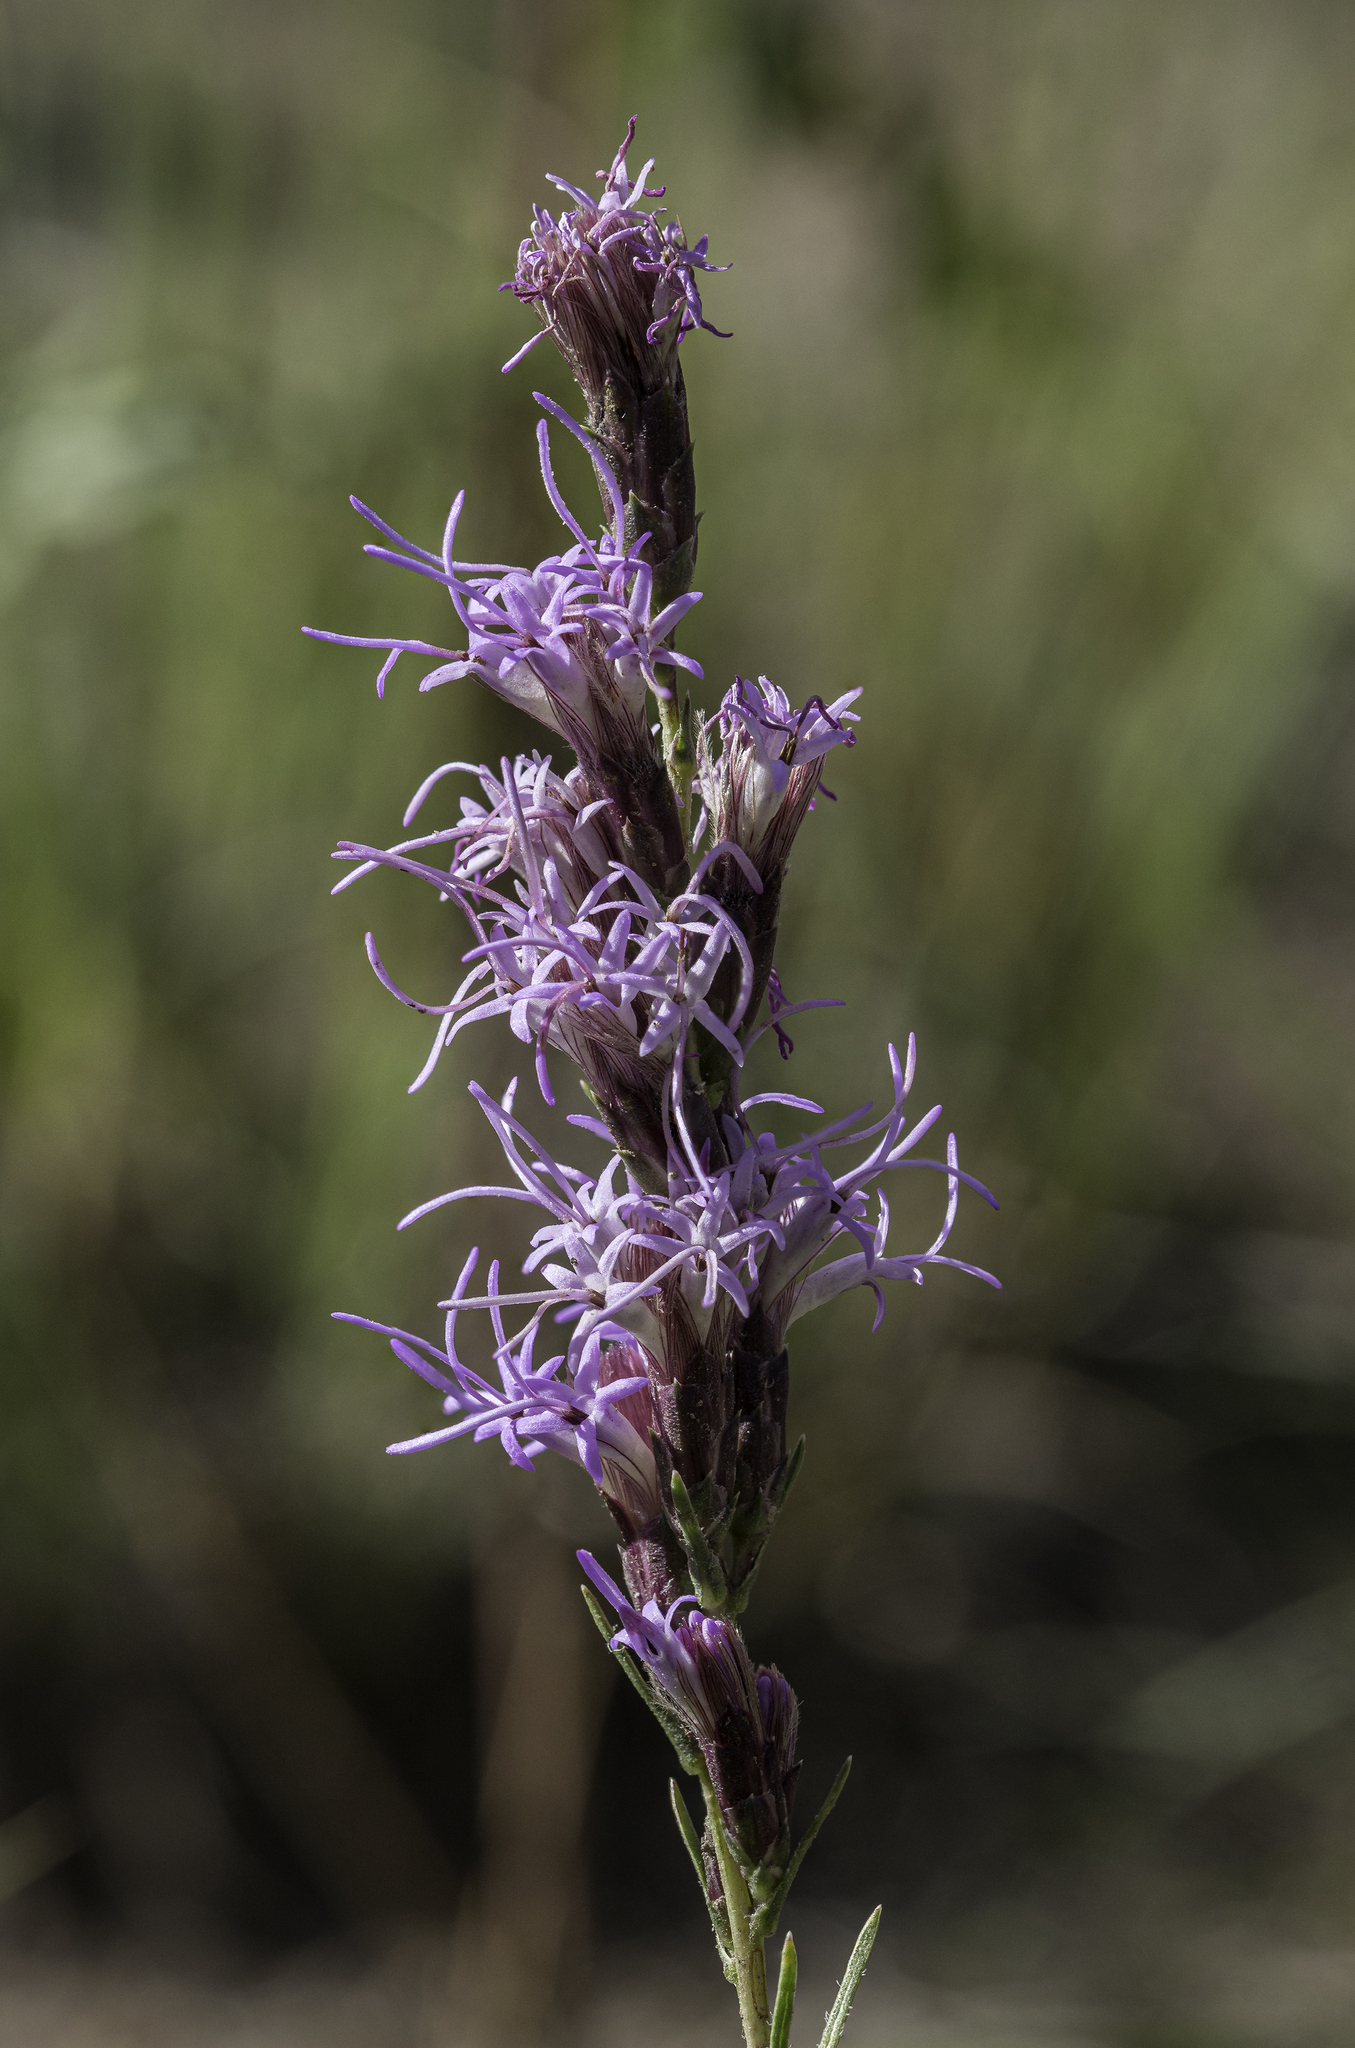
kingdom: Plantae
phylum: Tracheophyta
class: Magnoliopsida
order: Asterales
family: Asteraceae
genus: Liatris
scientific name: Liatris punctata
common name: Dotted gayfeather
